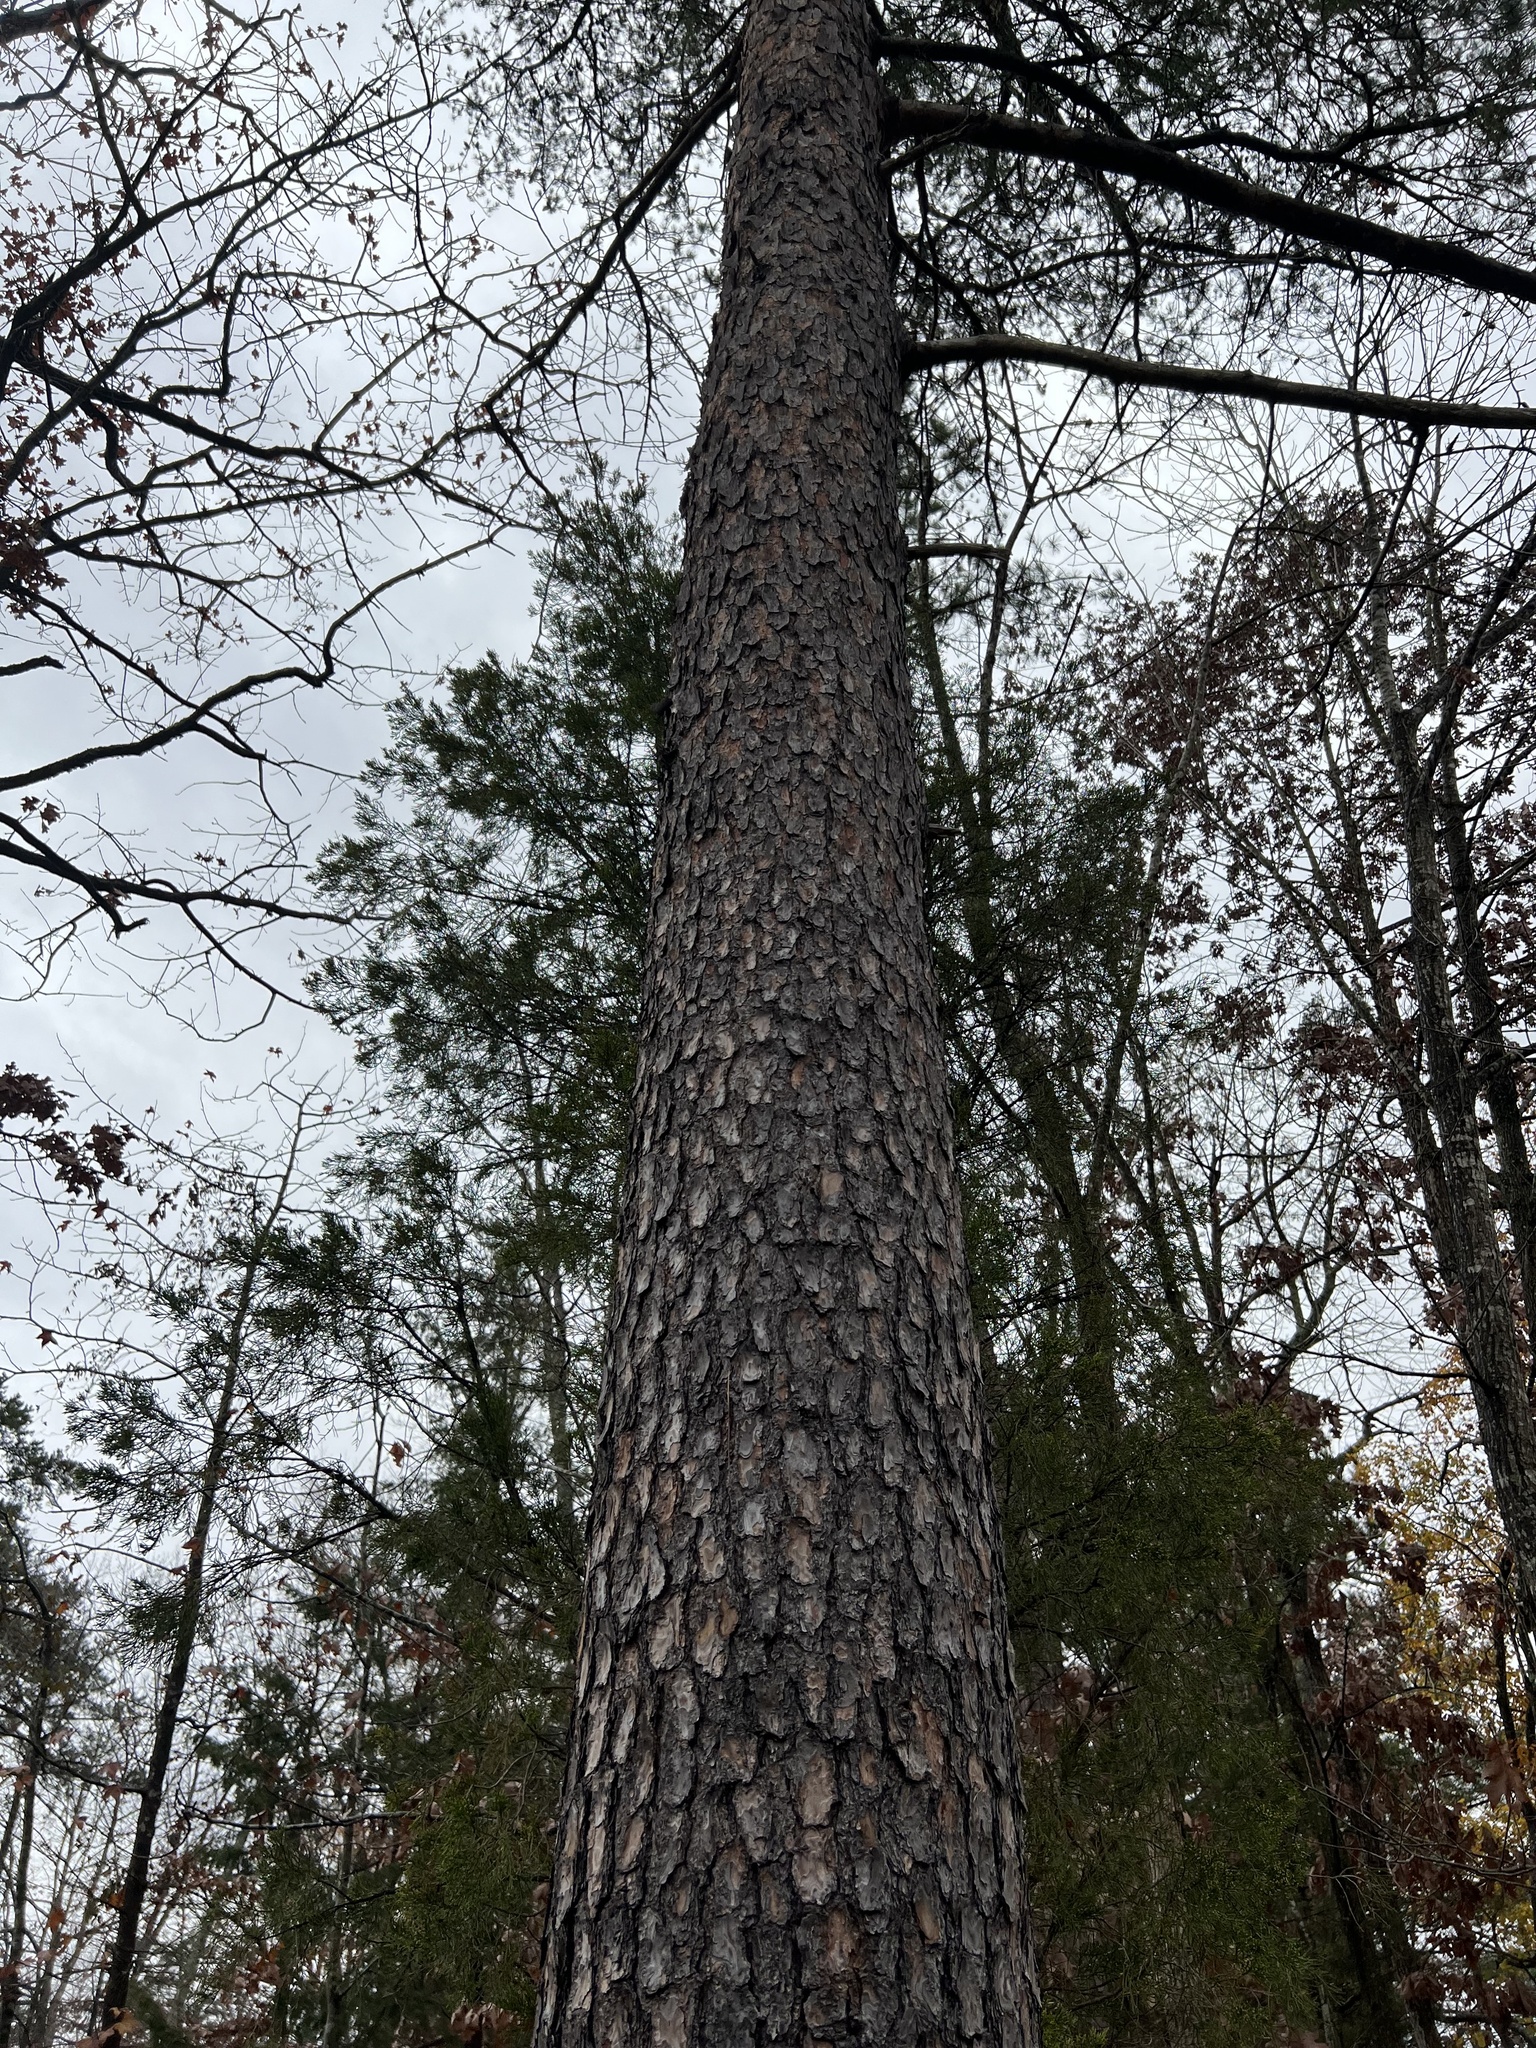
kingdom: Plantae
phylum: Tracheophyta
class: Pinopsida
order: Pinales
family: Pinaceae
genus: Pinus
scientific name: Pinus virginiana
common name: Scrub pine
